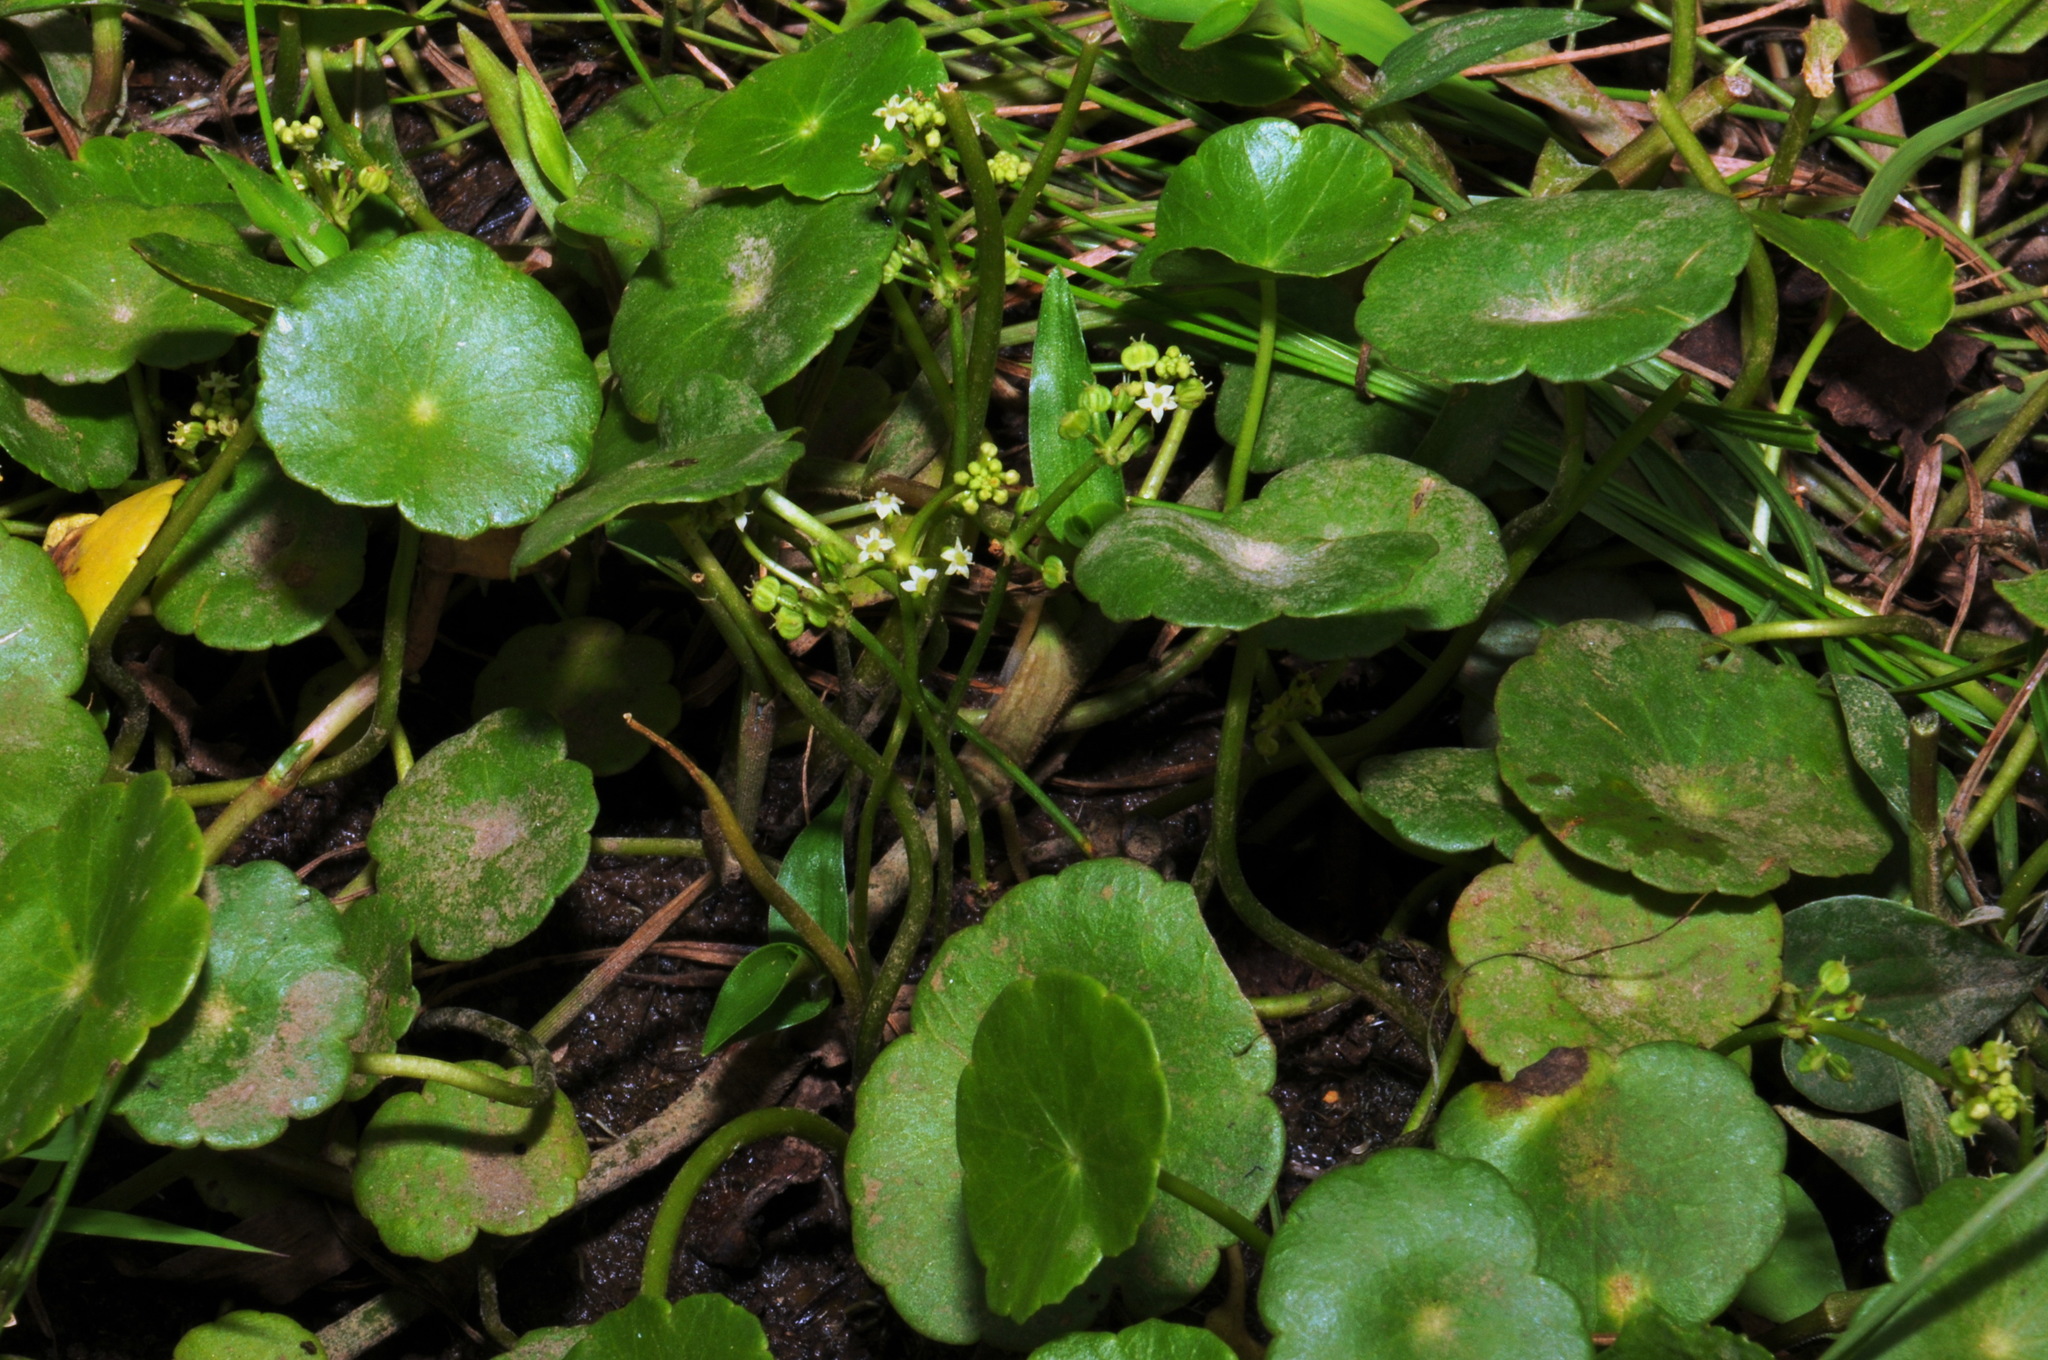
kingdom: Plantae
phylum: Tracheophyta
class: Magnoliopsida
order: Apiales
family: Araliaceae
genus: Hydrocotyle
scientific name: Hydrocotyle bonariensis
